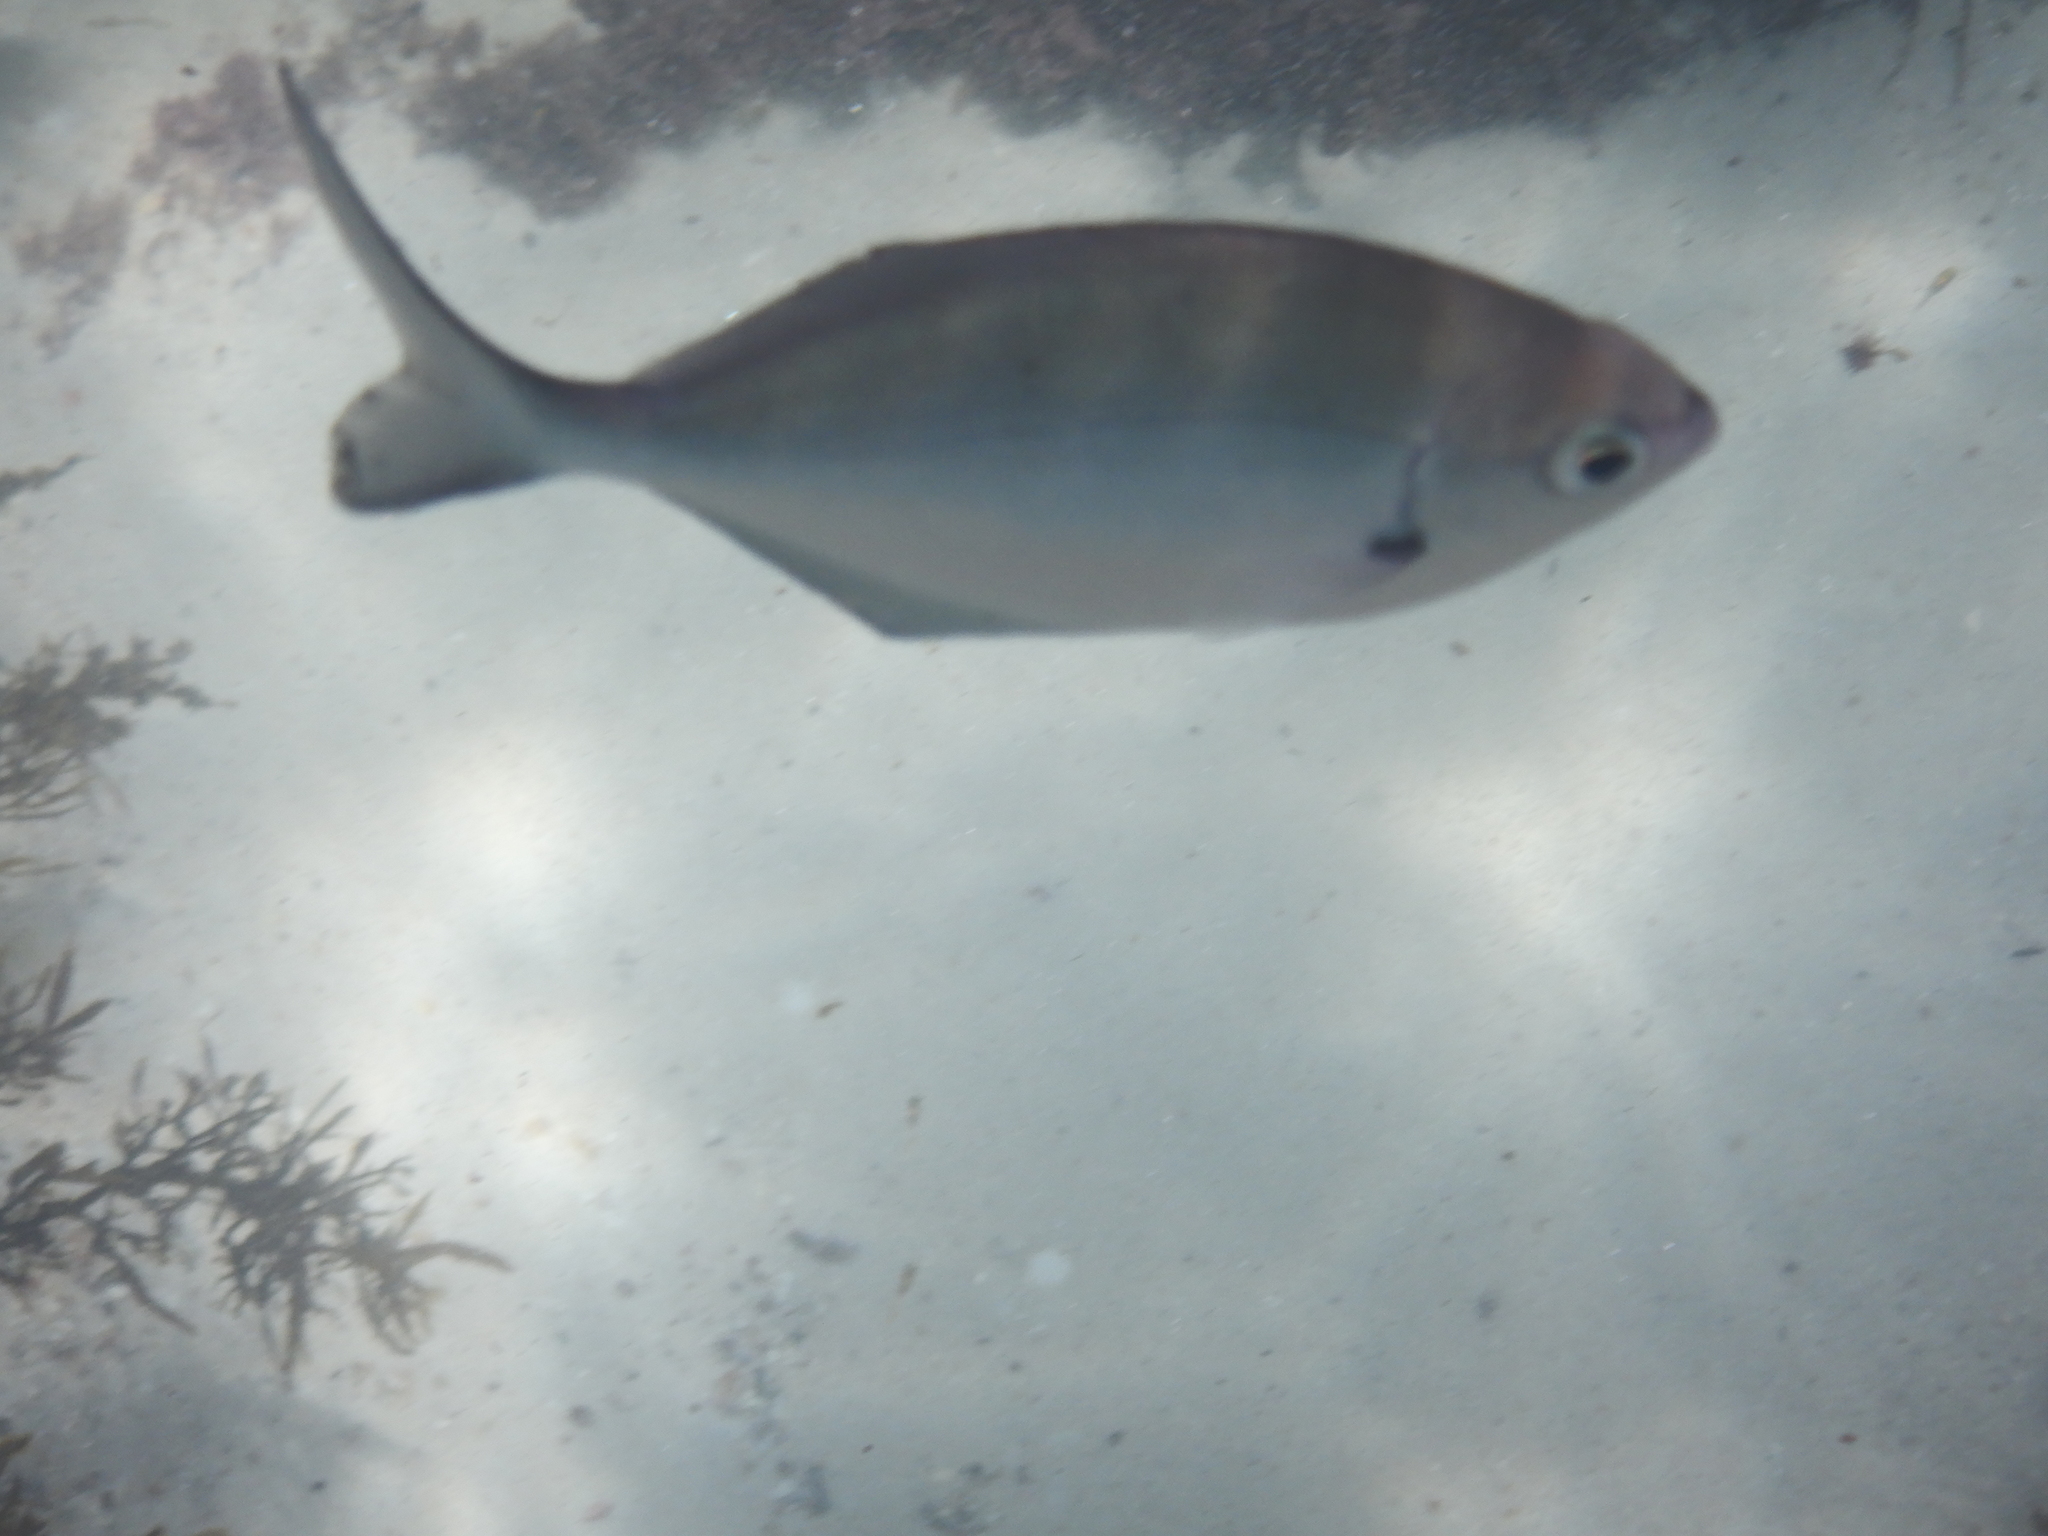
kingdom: Animalia
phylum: Chordata
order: Perciformes
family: Kyphosidae
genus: Scorpis
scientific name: Scorpis lineolata
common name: Sweep
